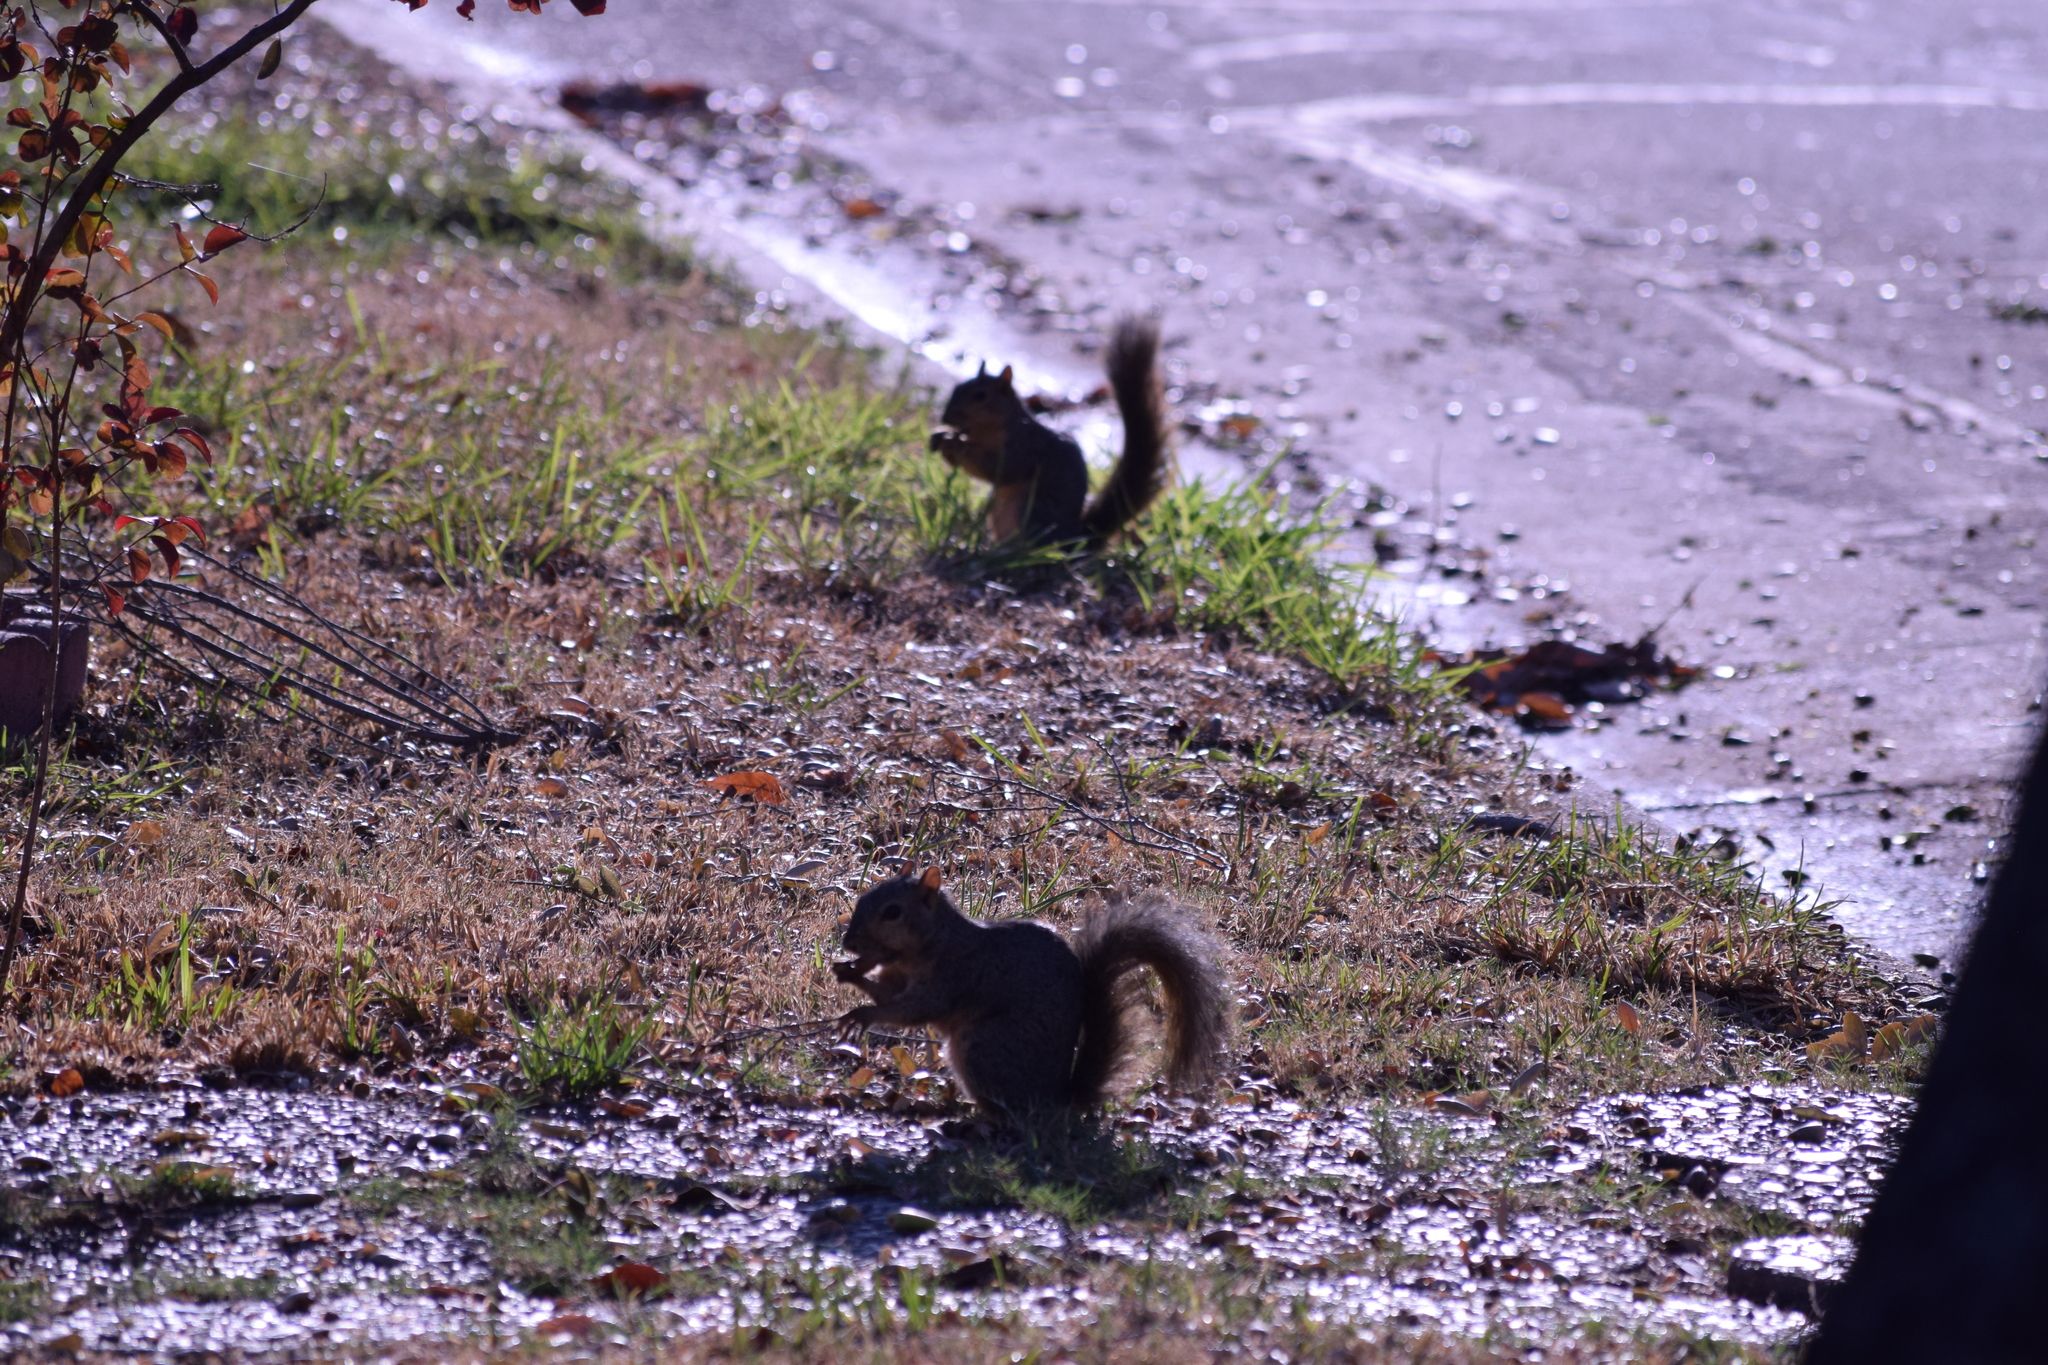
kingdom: Animalia
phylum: Chordata
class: Mammalia
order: Rodentia
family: Sciuridae
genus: Sciurus
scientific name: Sciurus niger
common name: Fox squirrel
